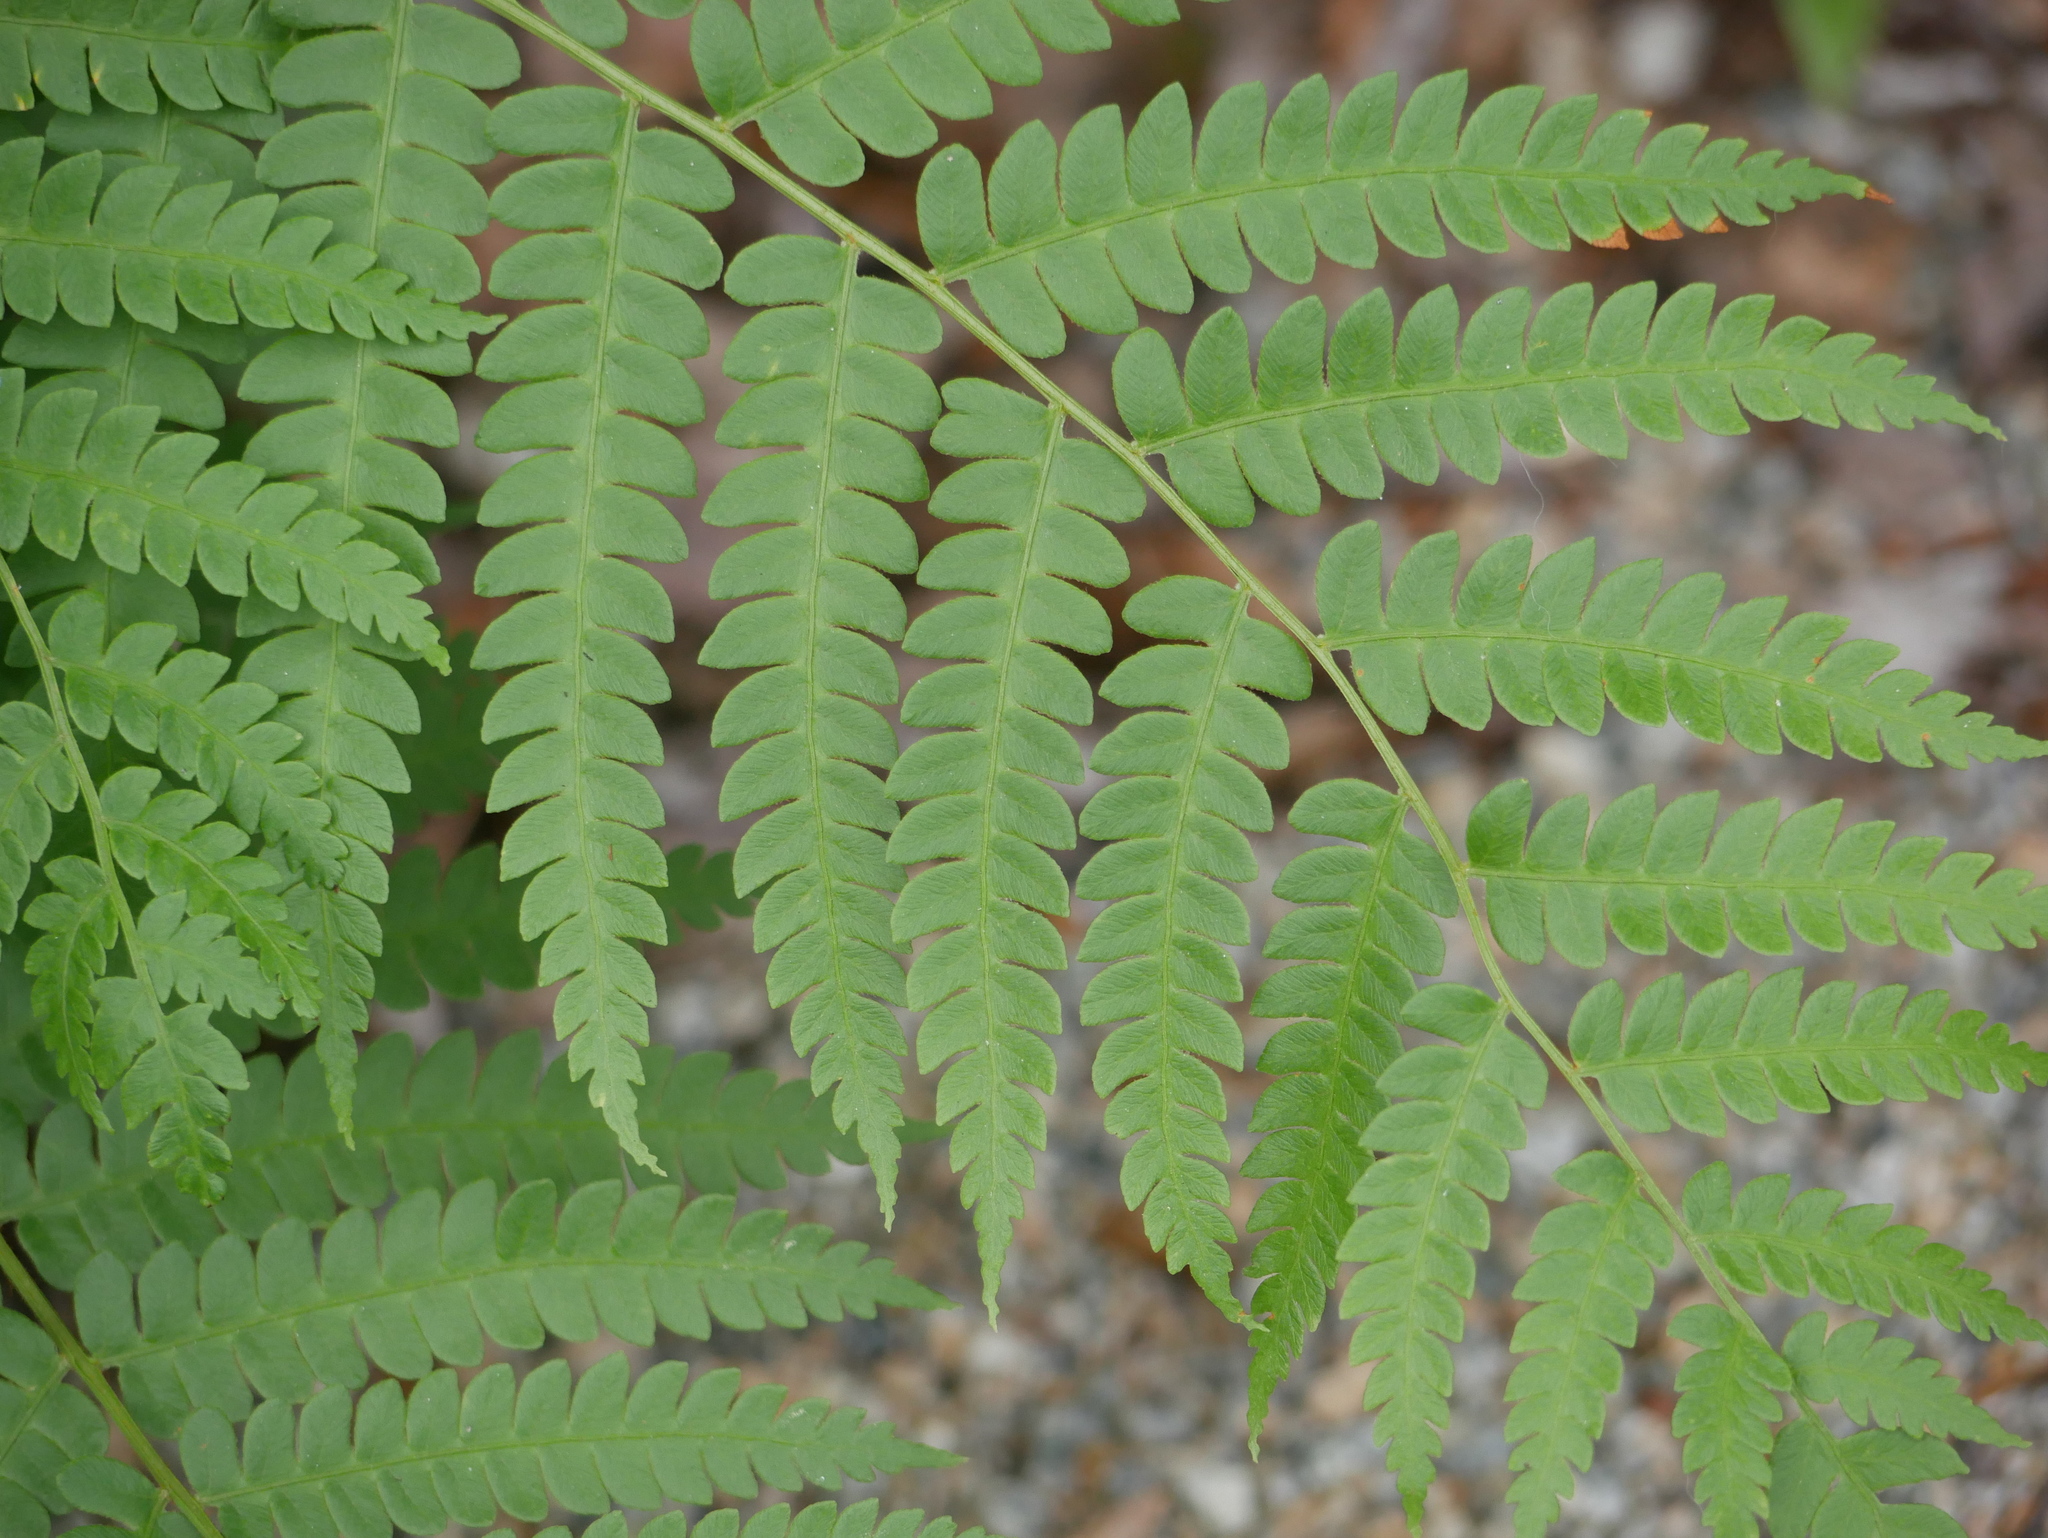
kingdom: Plantae
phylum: Tracheophyta
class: Polypodiopsida
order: Osmundales
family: Osmundaceae
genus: Osmundastrum
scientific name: Osmundastrum cinnamomeum
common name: Cinnamon fern
